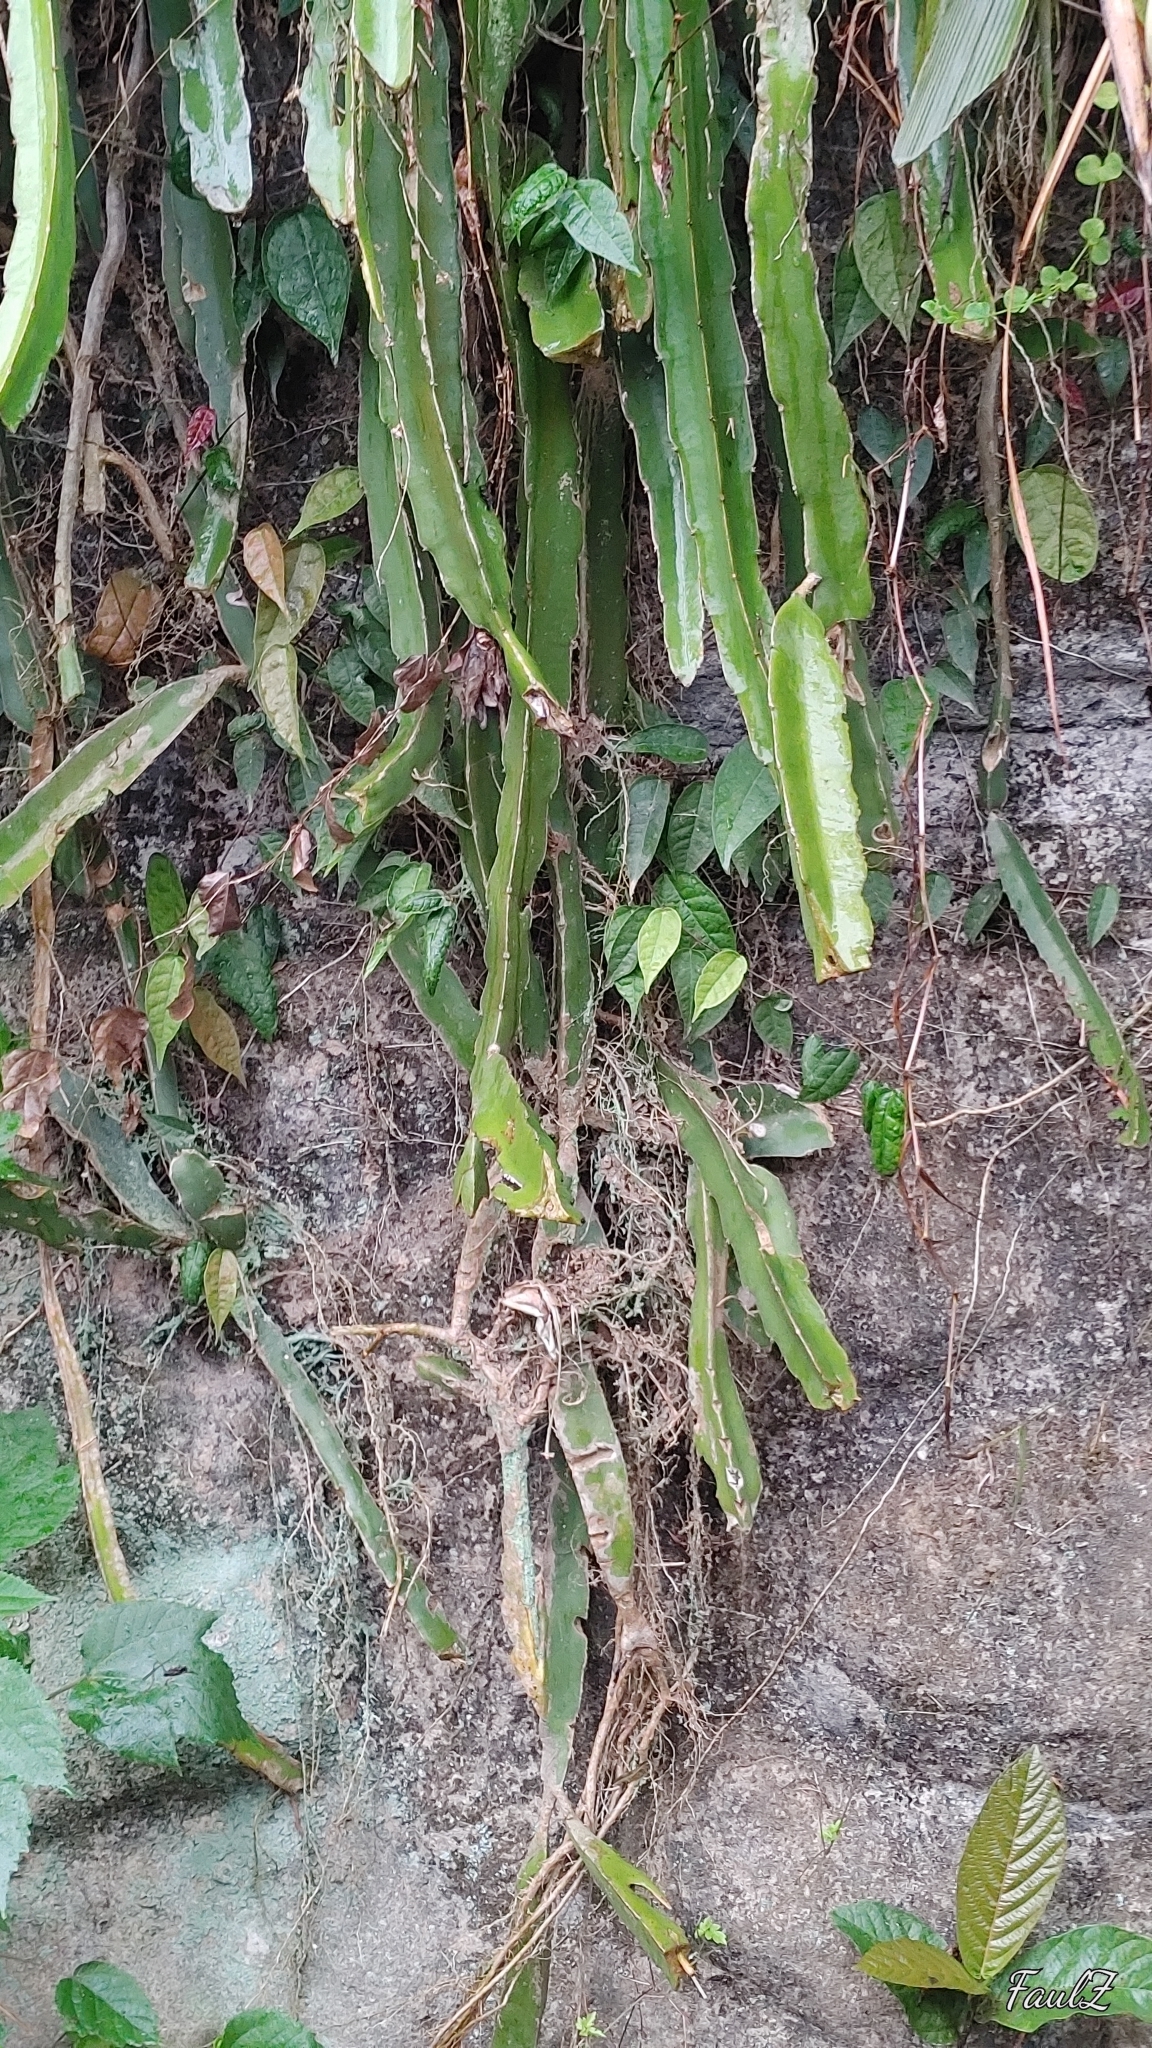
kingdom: Plantae
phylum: Tracheophyta
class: Magnoliopsida
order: Caryophyllales
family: Cactaceae
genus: Selenicereus
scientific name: Selenicereus undatus
